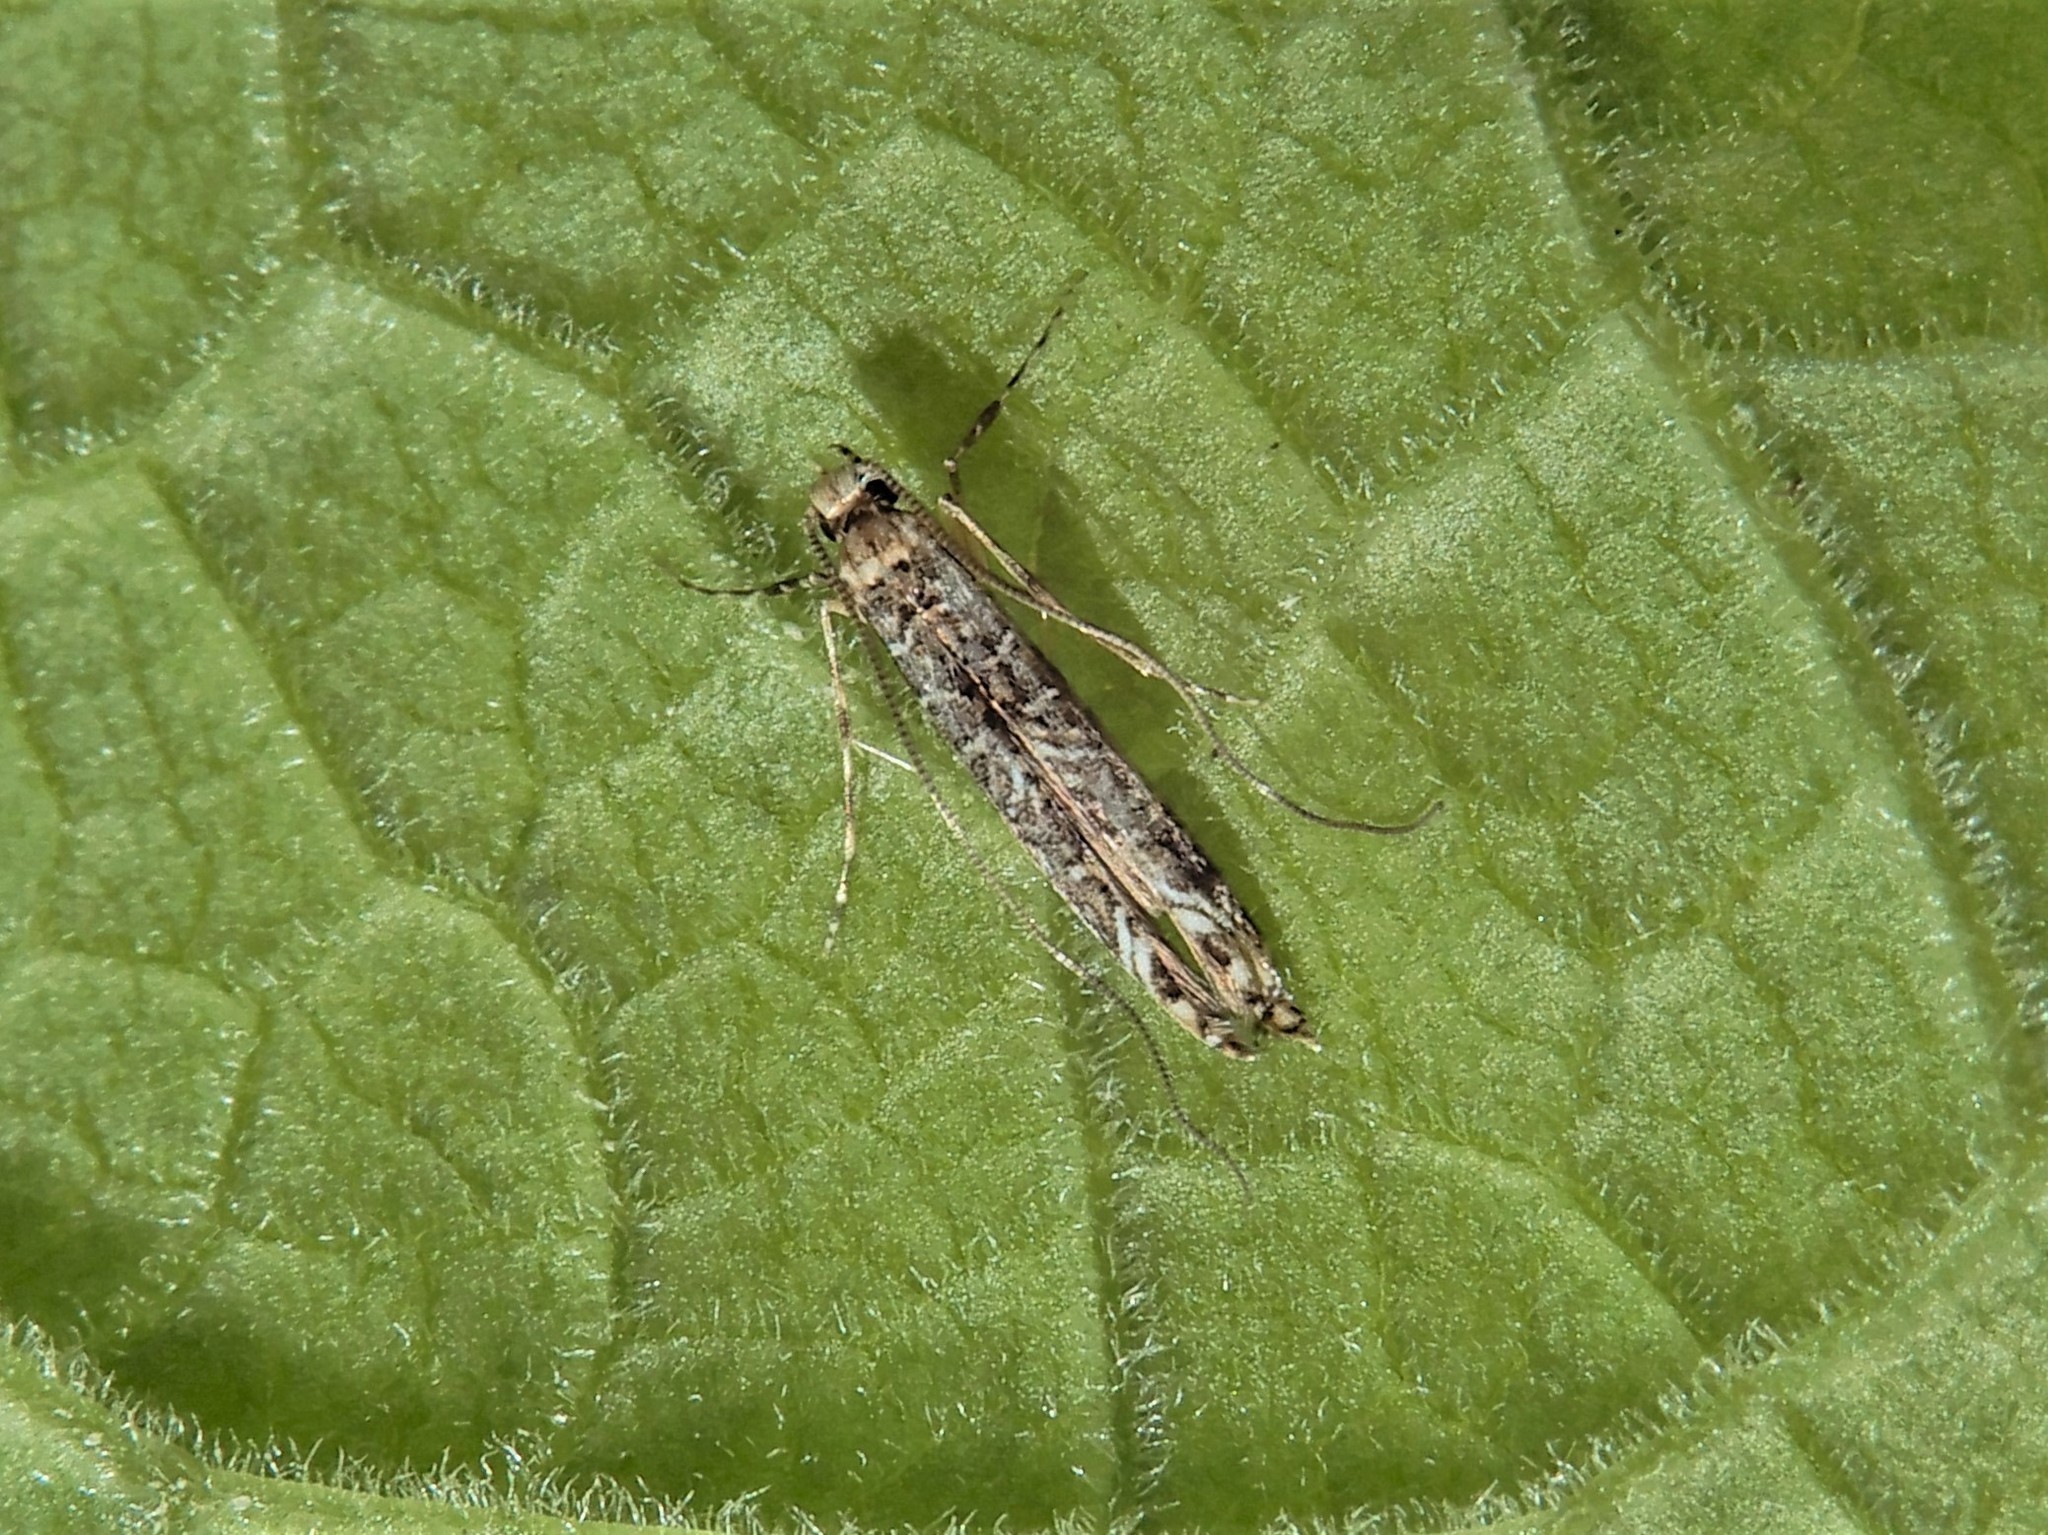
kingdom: Animalia
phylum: Arthropoda
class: Insecta
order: Lepidoptera
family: Gracillariidae
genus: Conopomorpha
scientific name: Conopomorpha cyanospila
